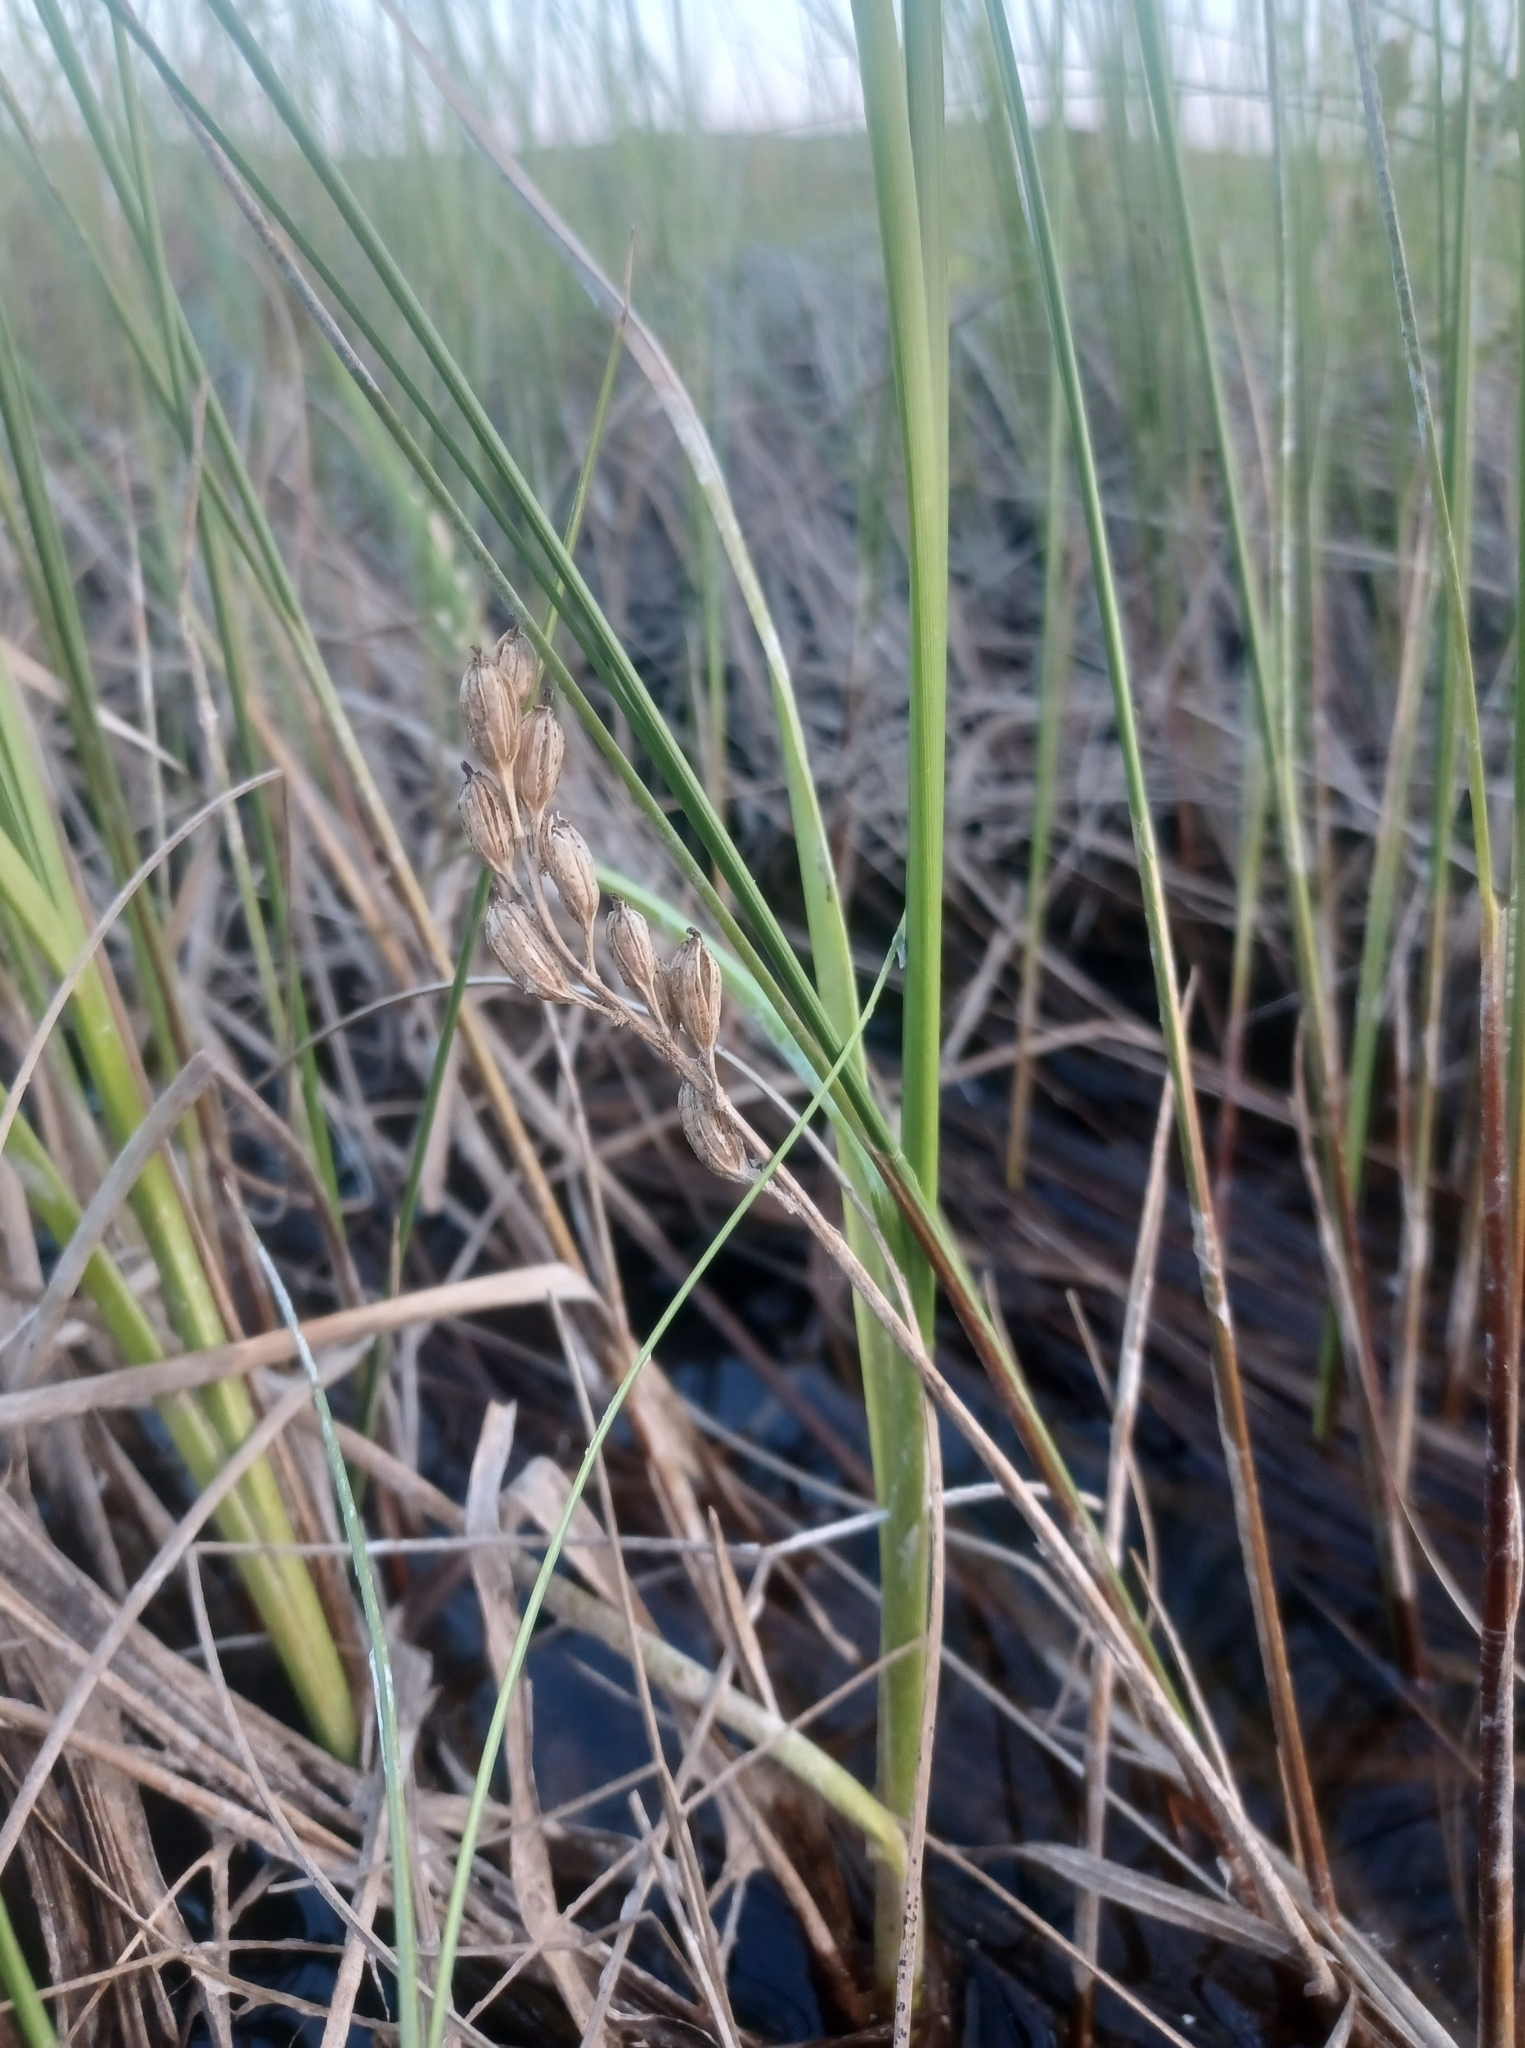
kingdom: Animalia
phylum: Arthropoda
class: Insecta
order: Coleoptera
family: Curculionidae
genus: Liparis
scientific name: Liparis loeselii
